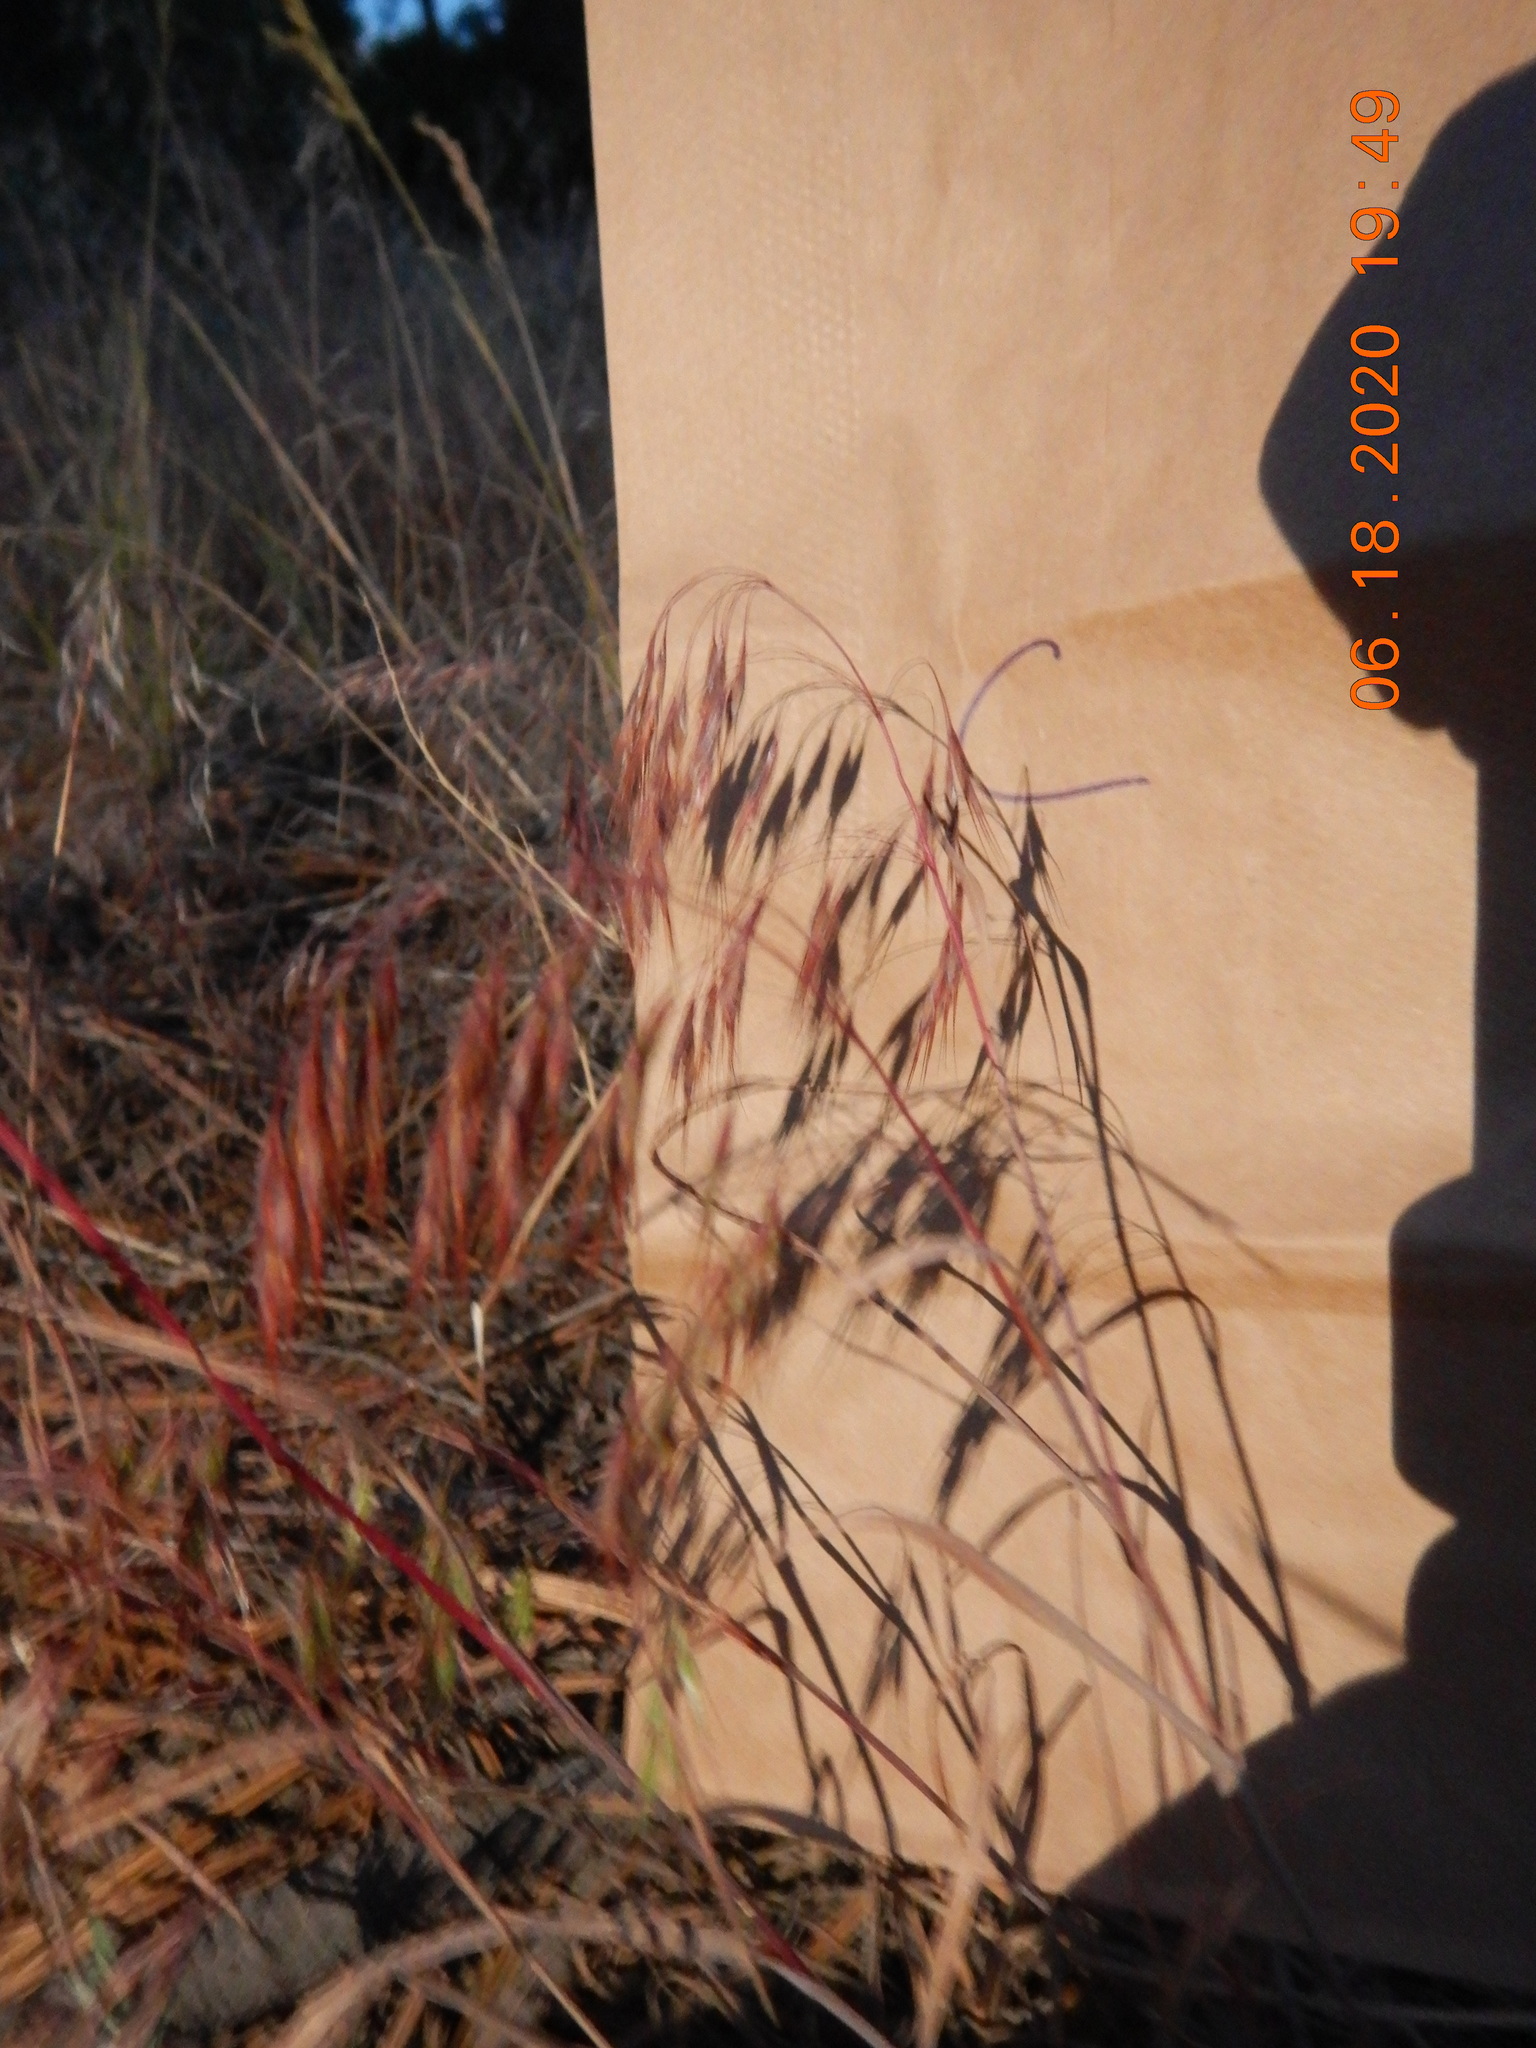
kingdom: Plantae
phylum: Tracheophyta
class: Liliopsida
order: Poales
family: Poaceae
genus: Bromus
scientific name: Bromus tectorum
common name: Cheatgrass
